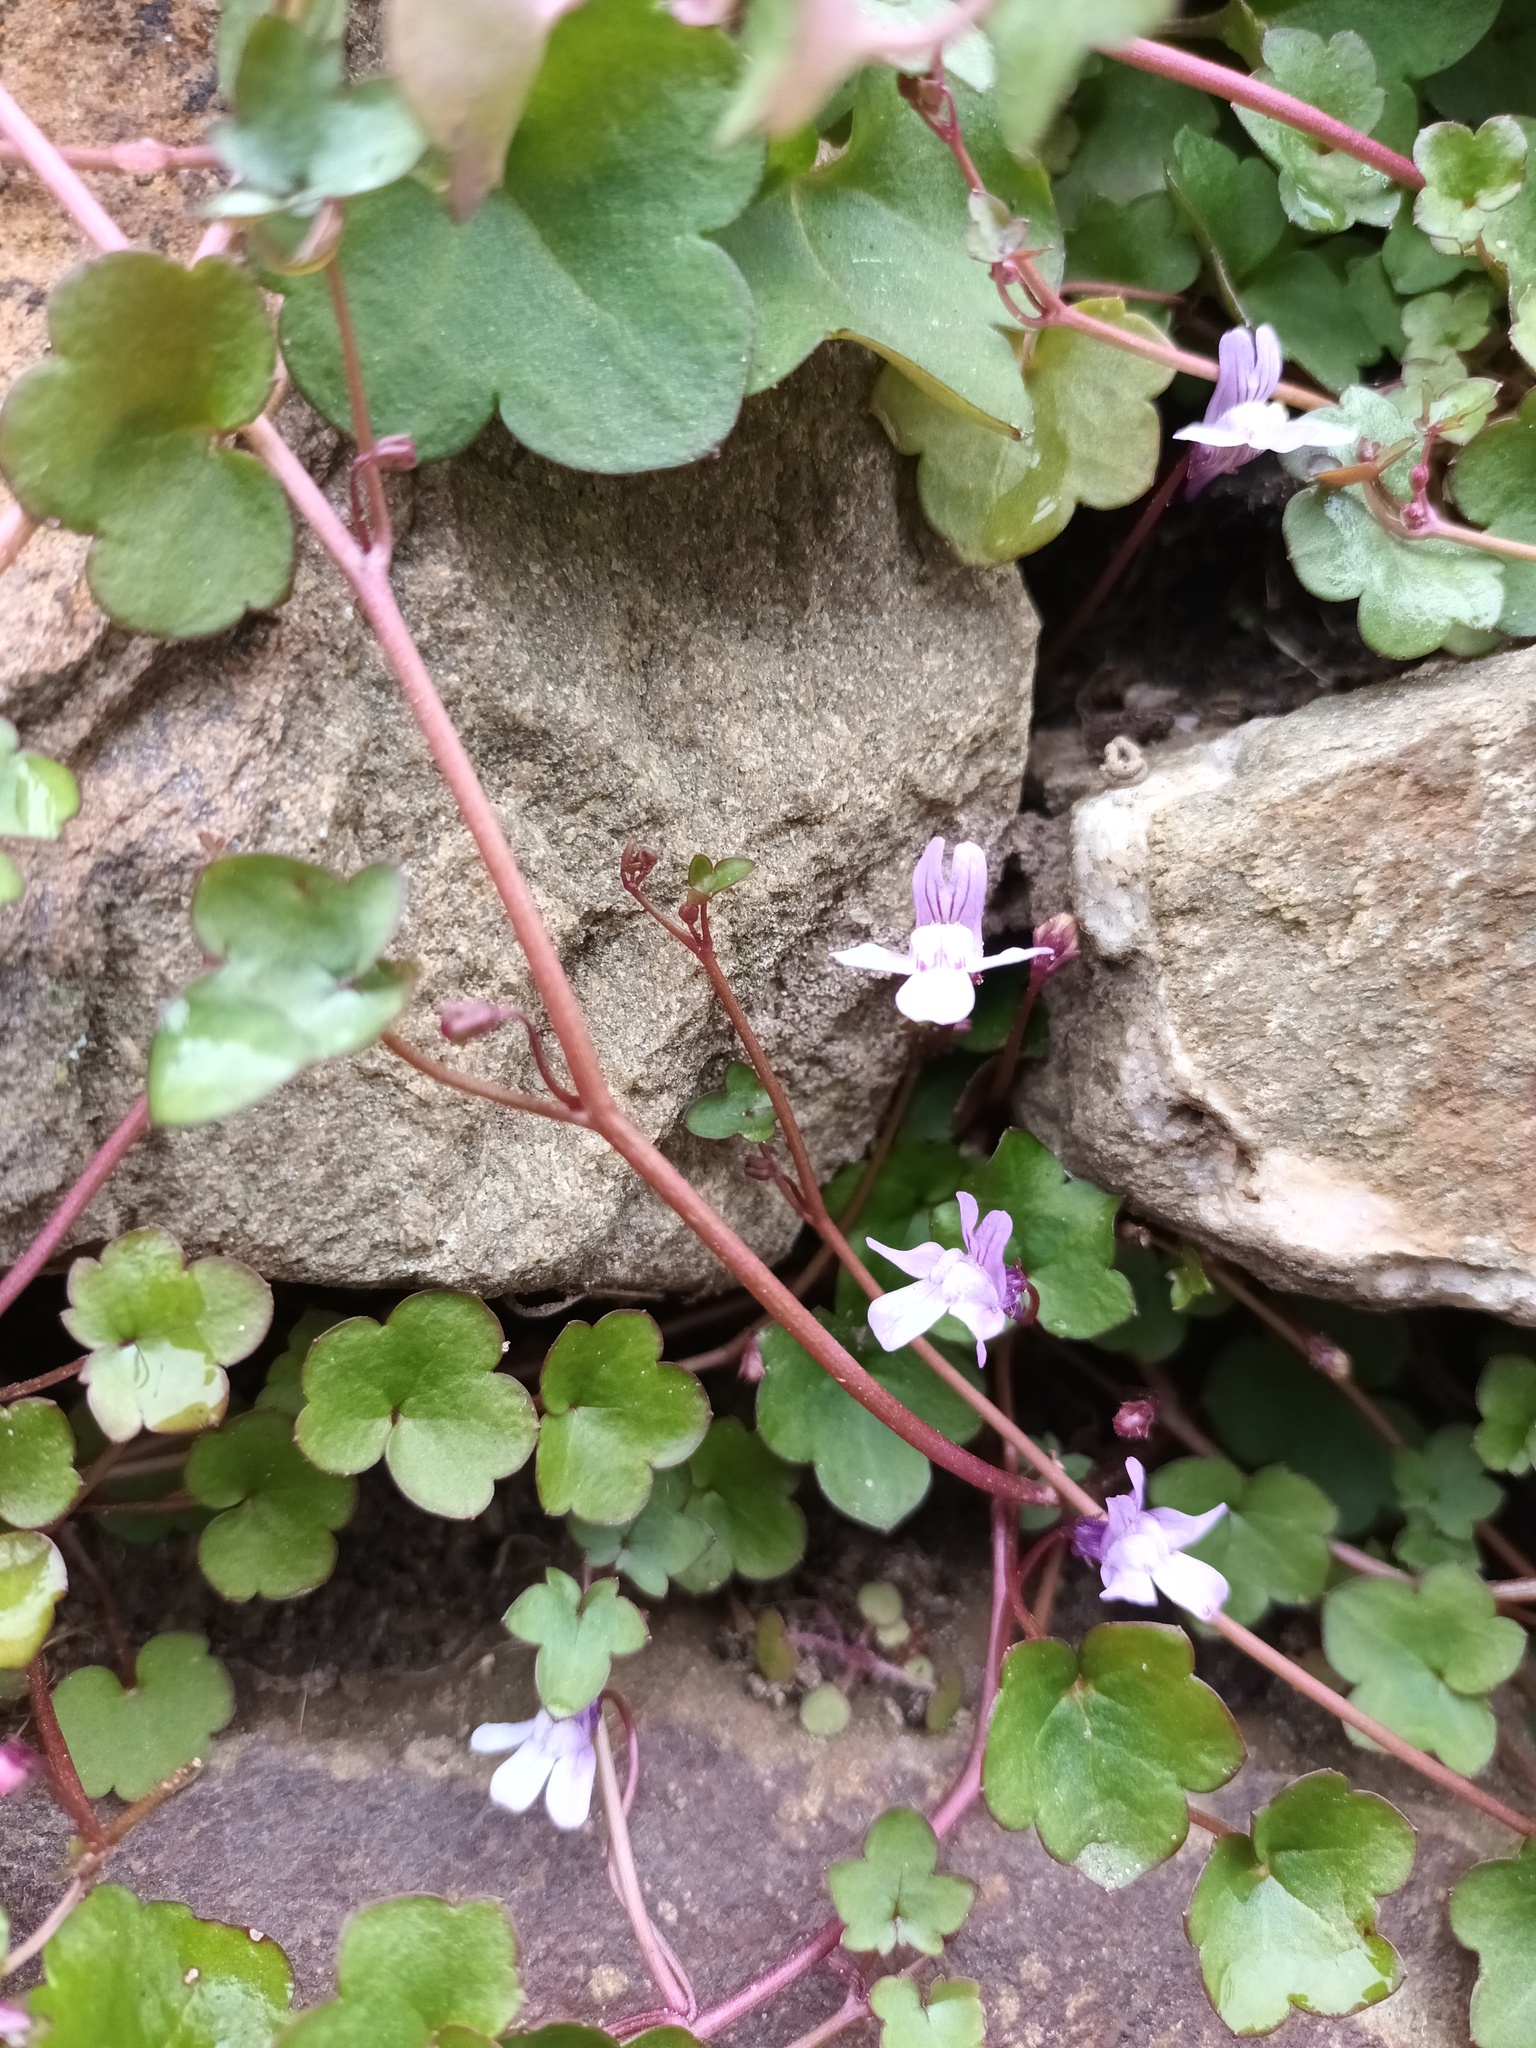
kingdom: Plantae
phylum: Tracheophyta
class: Magnoliopsida
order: Lamiales
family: Plantaginaceae
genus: Cymbalaria
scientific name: Cymbalaria muralis
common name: Ivy-leaved toadflax
